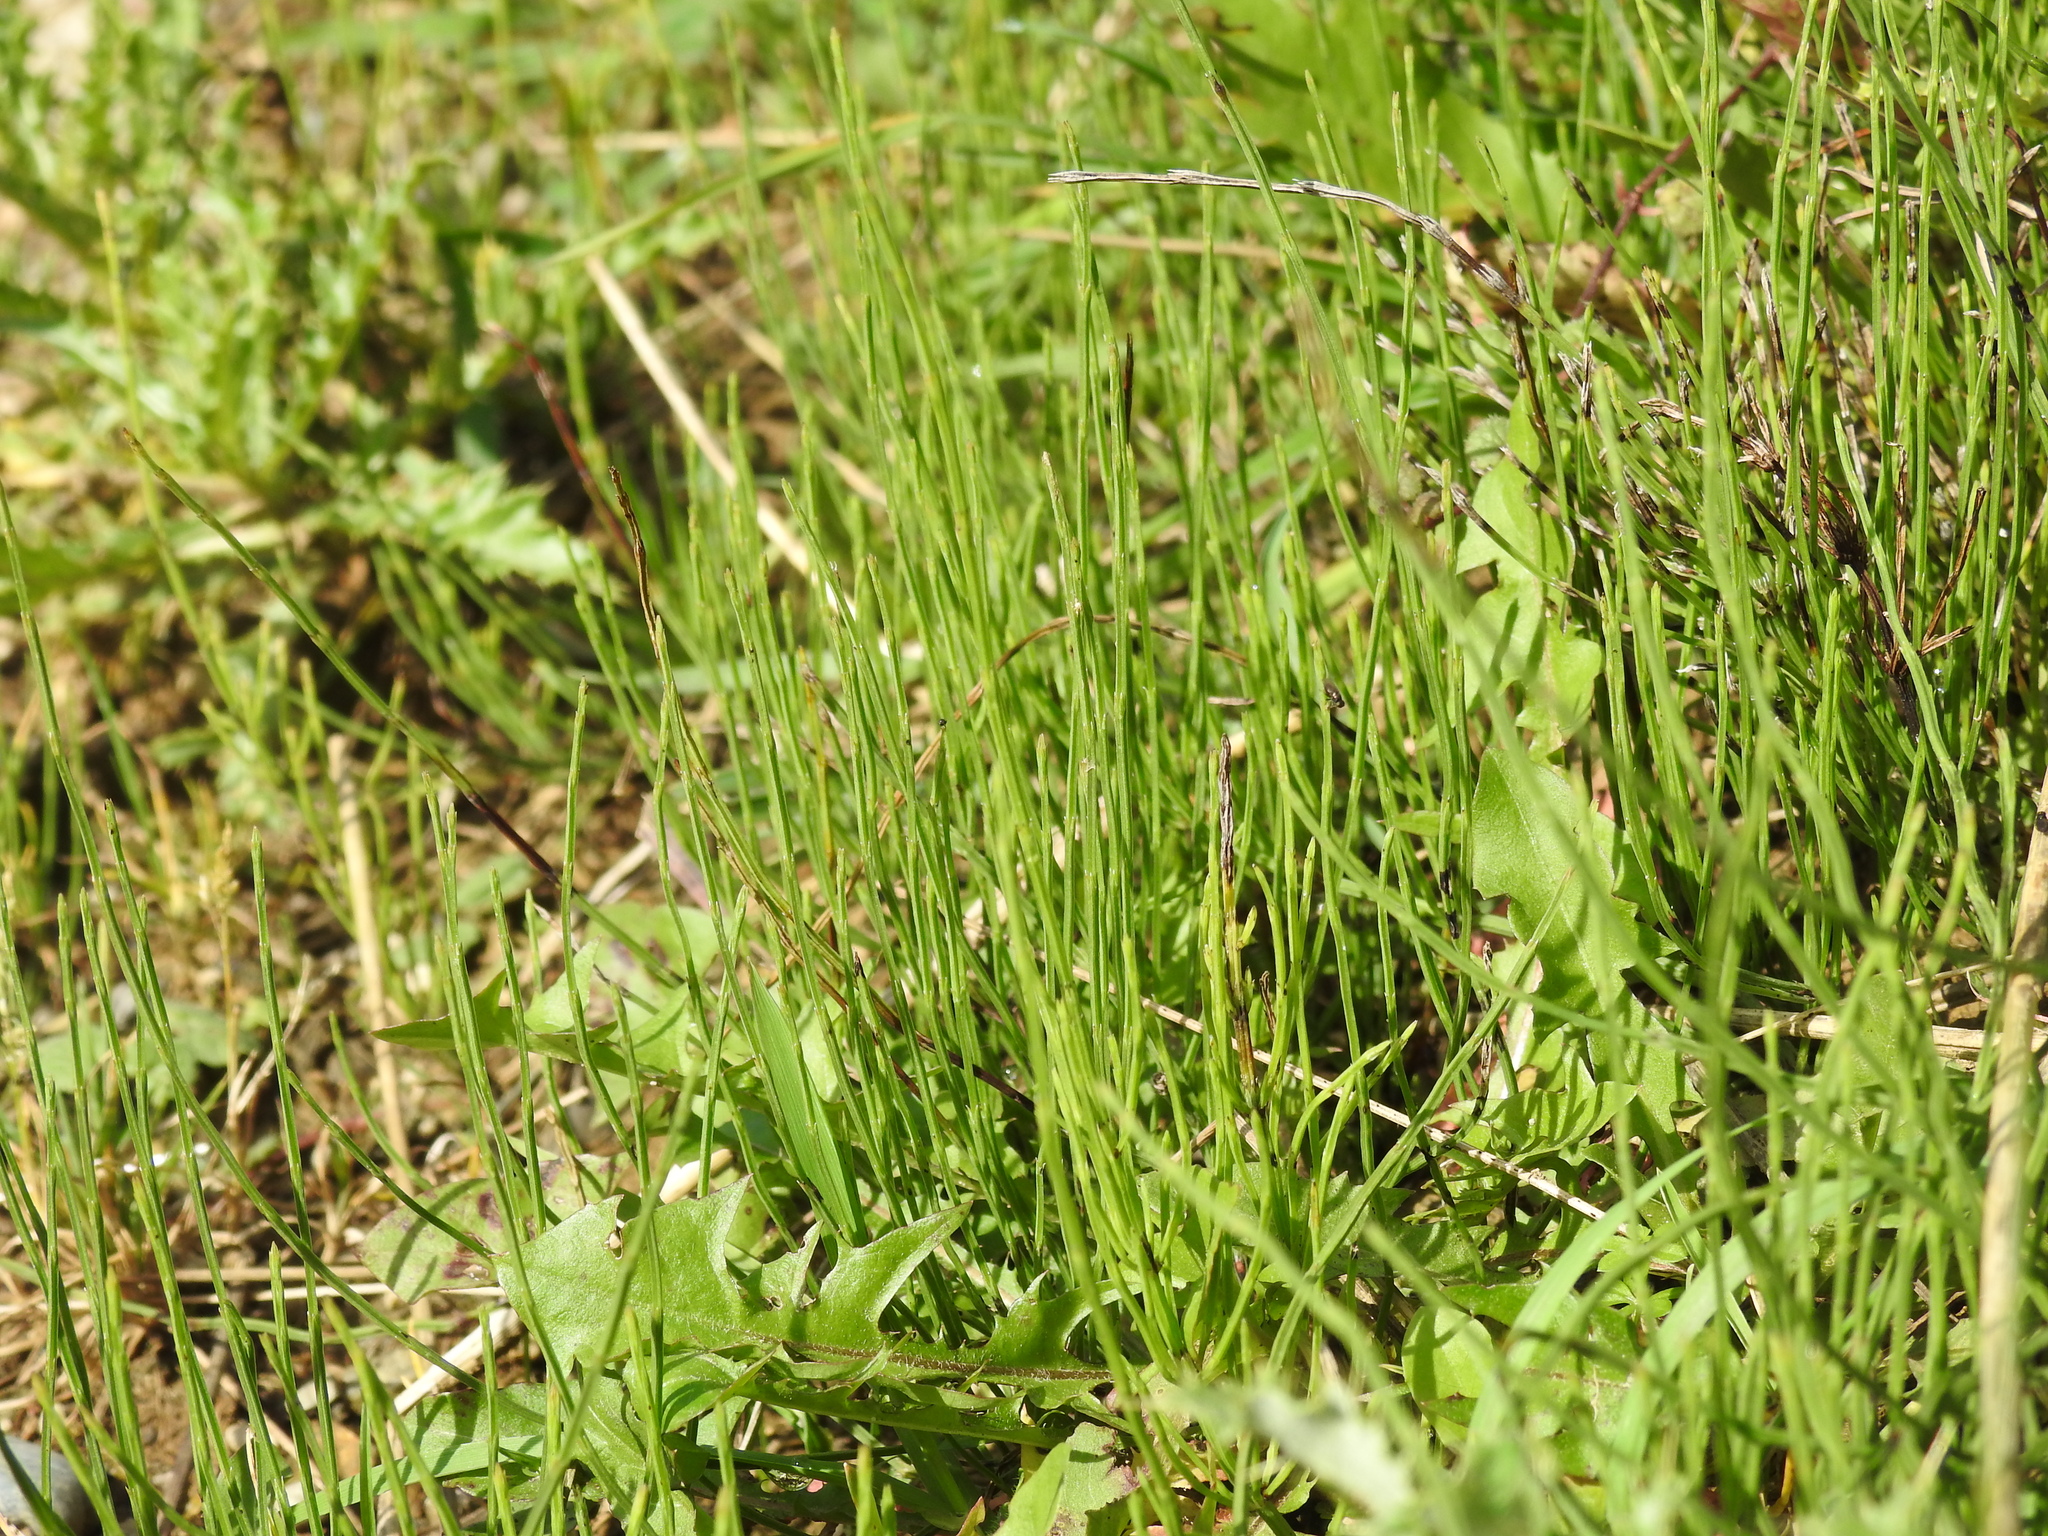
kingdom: Plantae
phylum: Tracheophyta
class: Polypodiopsida
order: Equisetales
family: Equisetaceae
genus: Equisetum
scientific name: Equisetum arvense
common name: Field horsetail
